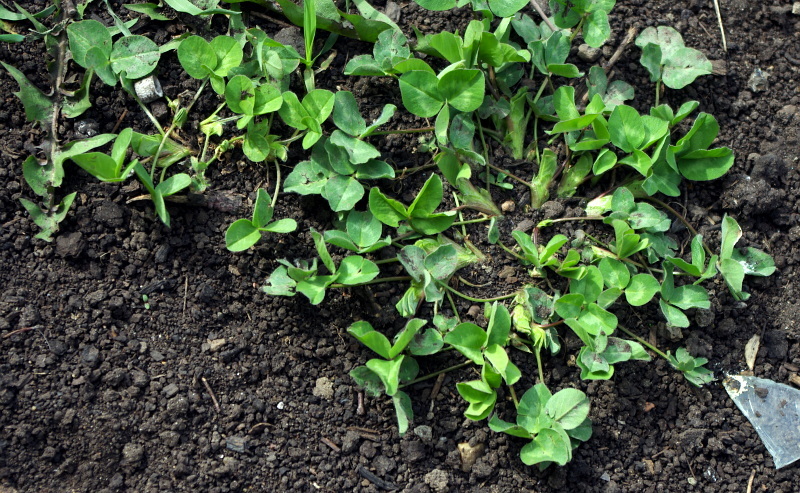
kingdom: Plantae
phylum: Tracheophyta
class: Magnoliopsida
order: Fabales
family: Fabaceae
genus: Trifolium
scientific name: Trifolium repens
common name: White clover
